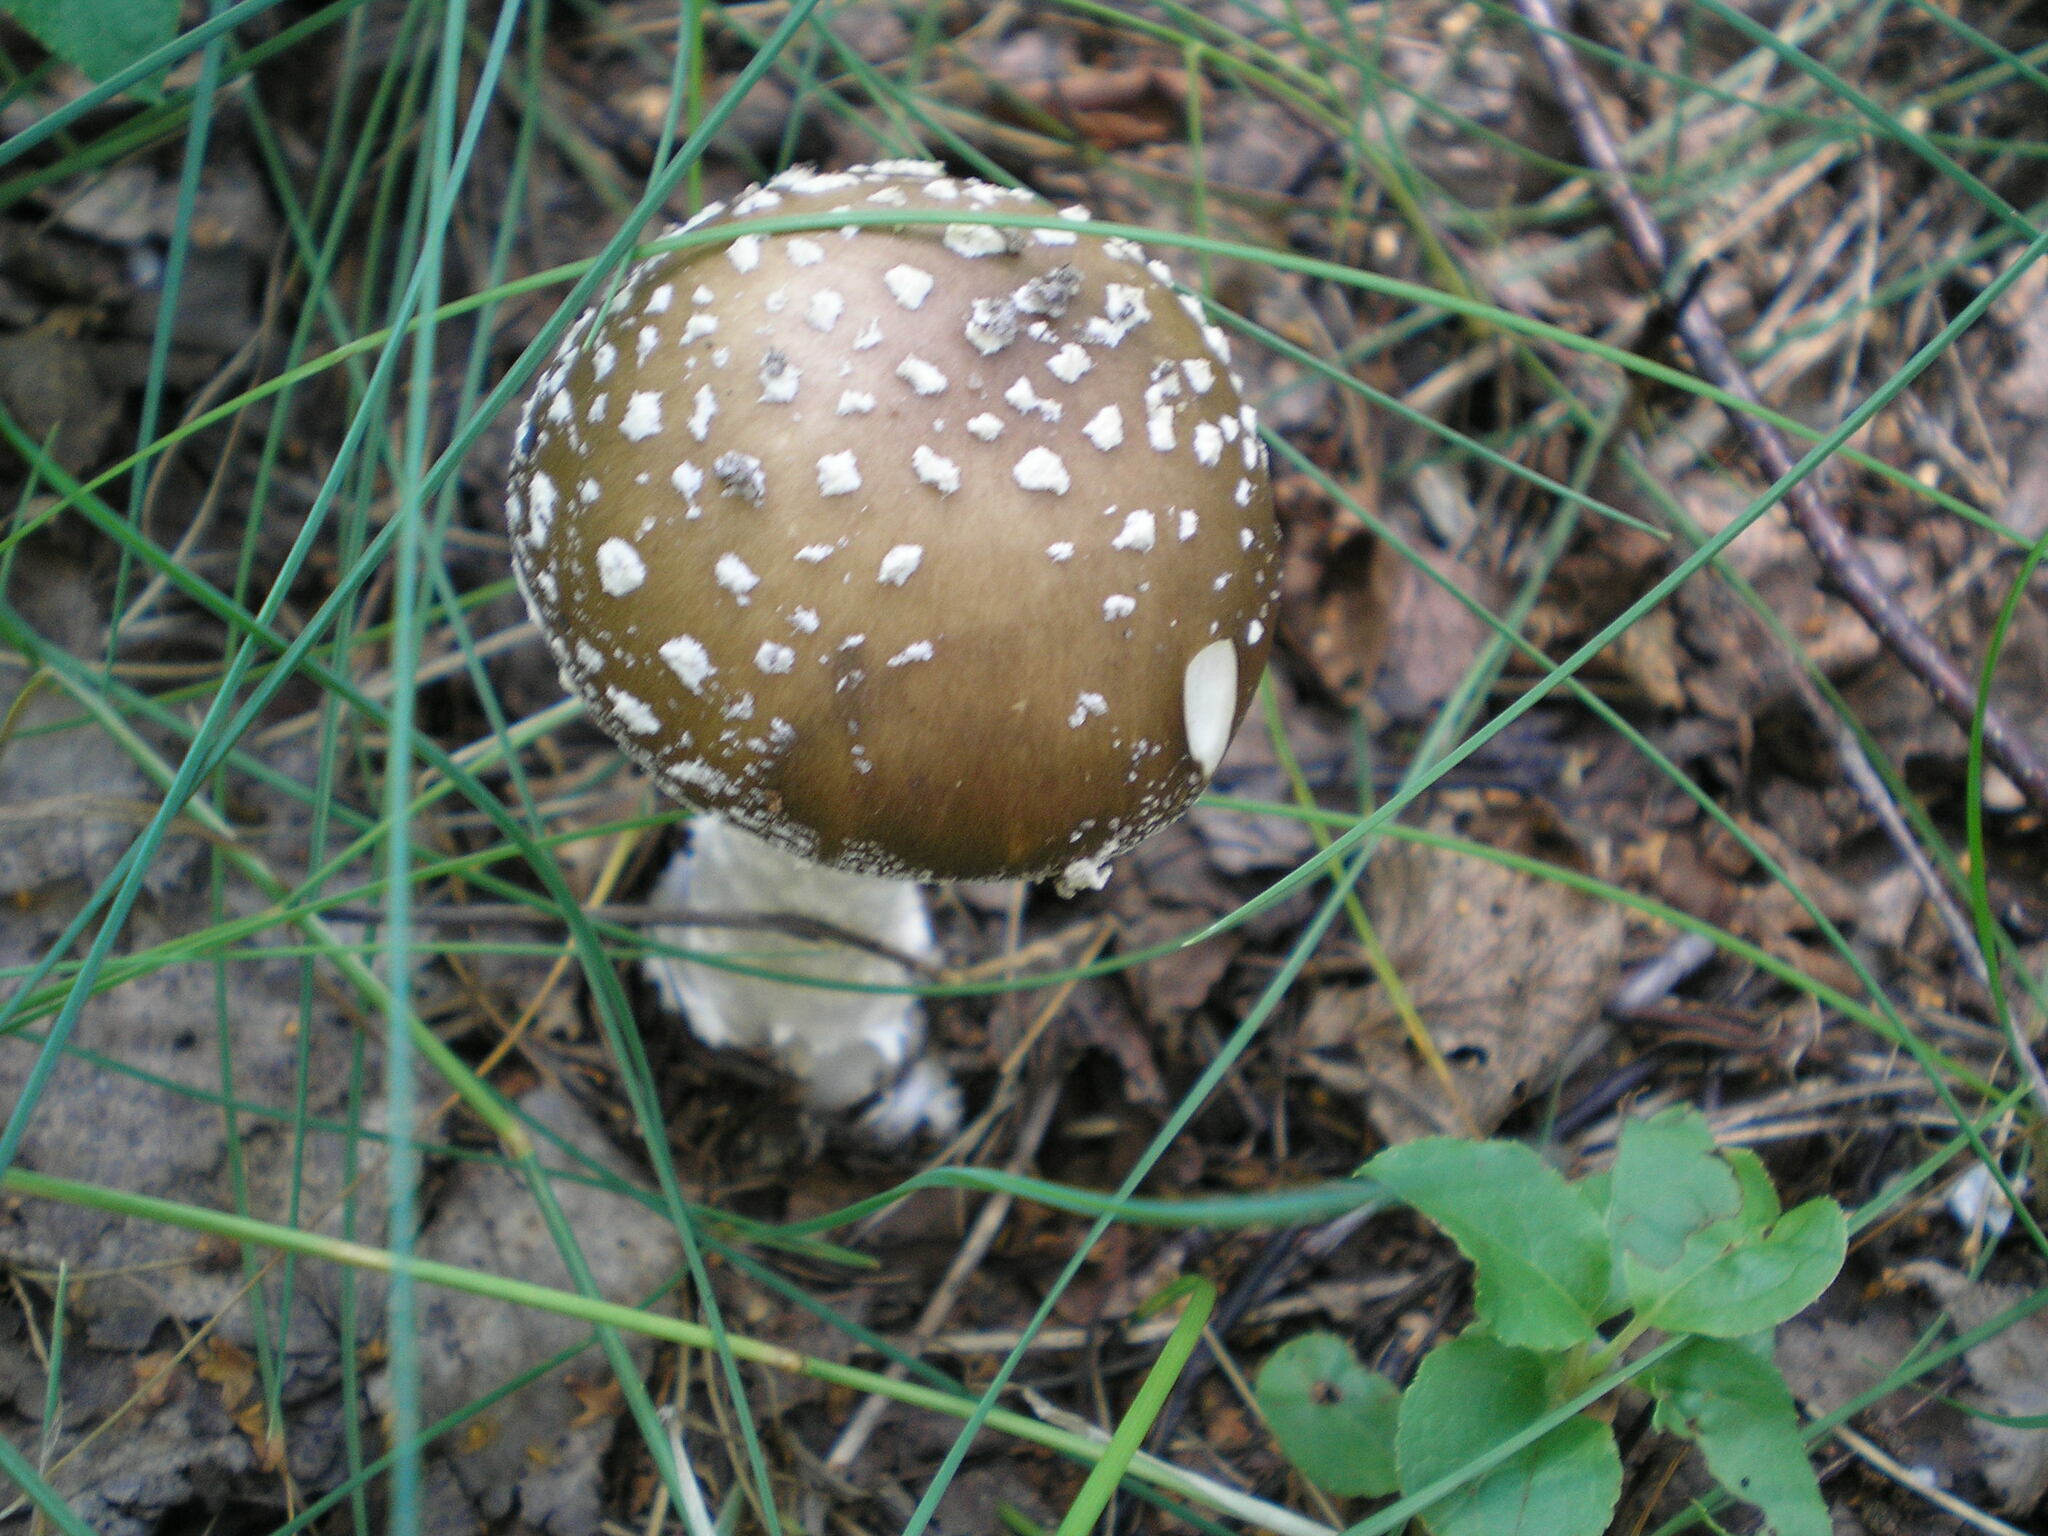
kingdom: Fungi
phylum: Basidiomycota
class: Agaricomycetes
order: Agaricales
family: Amanitaceae
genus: Amanita
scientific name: Amanita pantherina
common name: Panthercap
